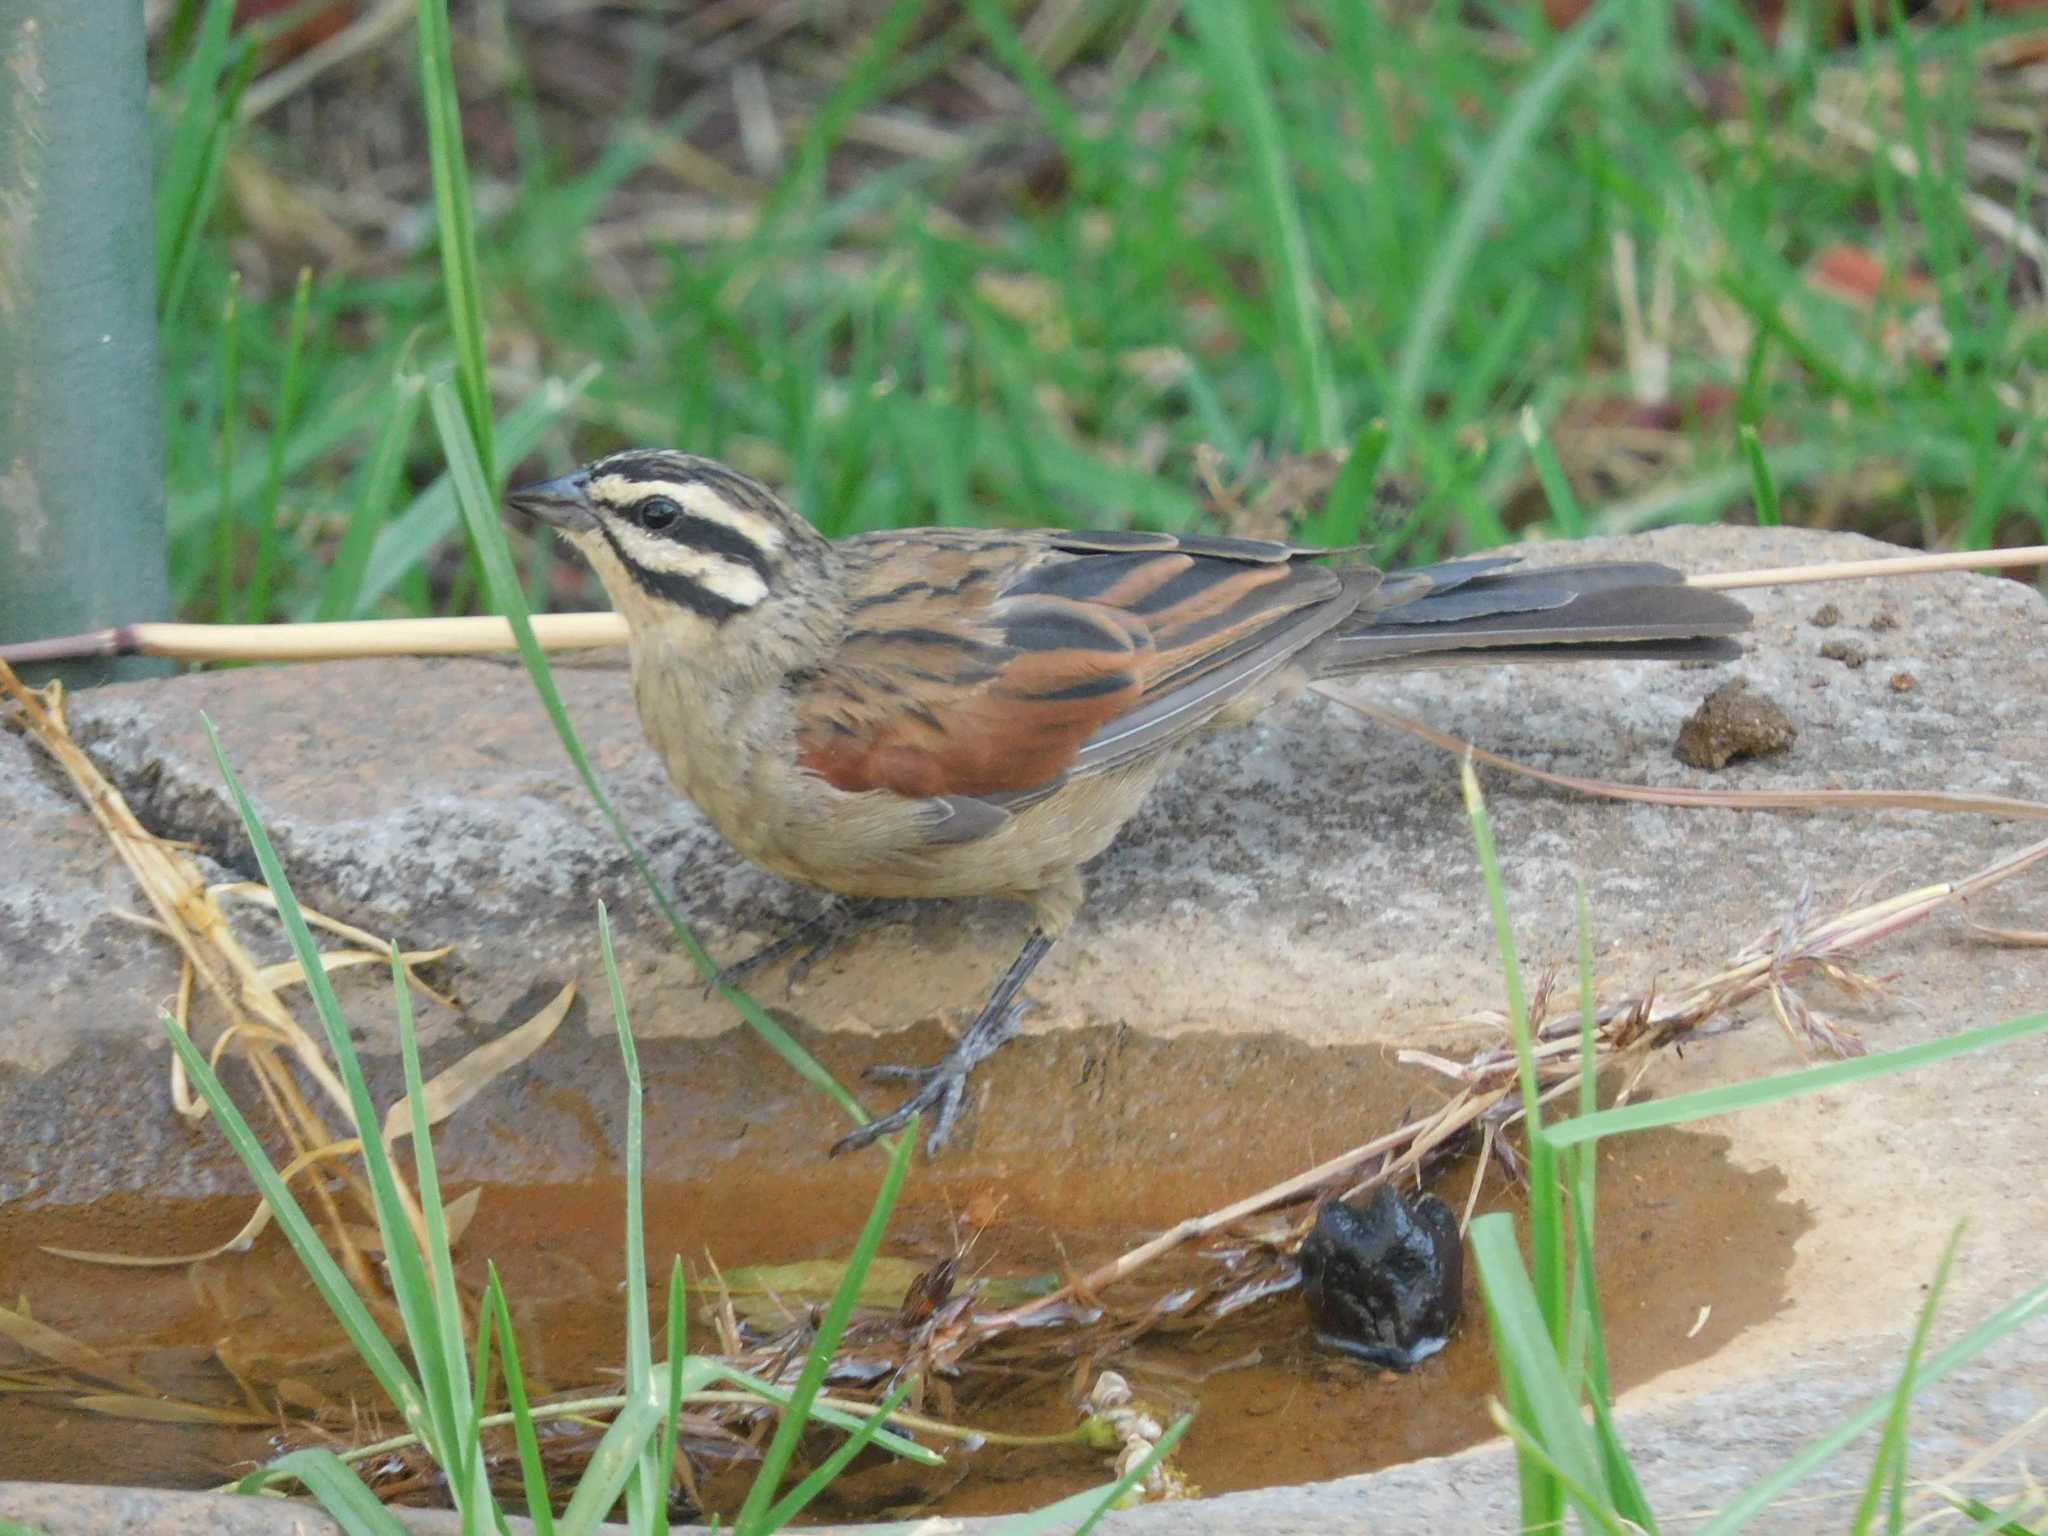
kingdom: Animalia
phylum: Chordata
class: Aves
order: Passeriformes
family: Emberizidae
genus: Emberiza
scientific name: Emberiza capensis
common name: Cape bunting
